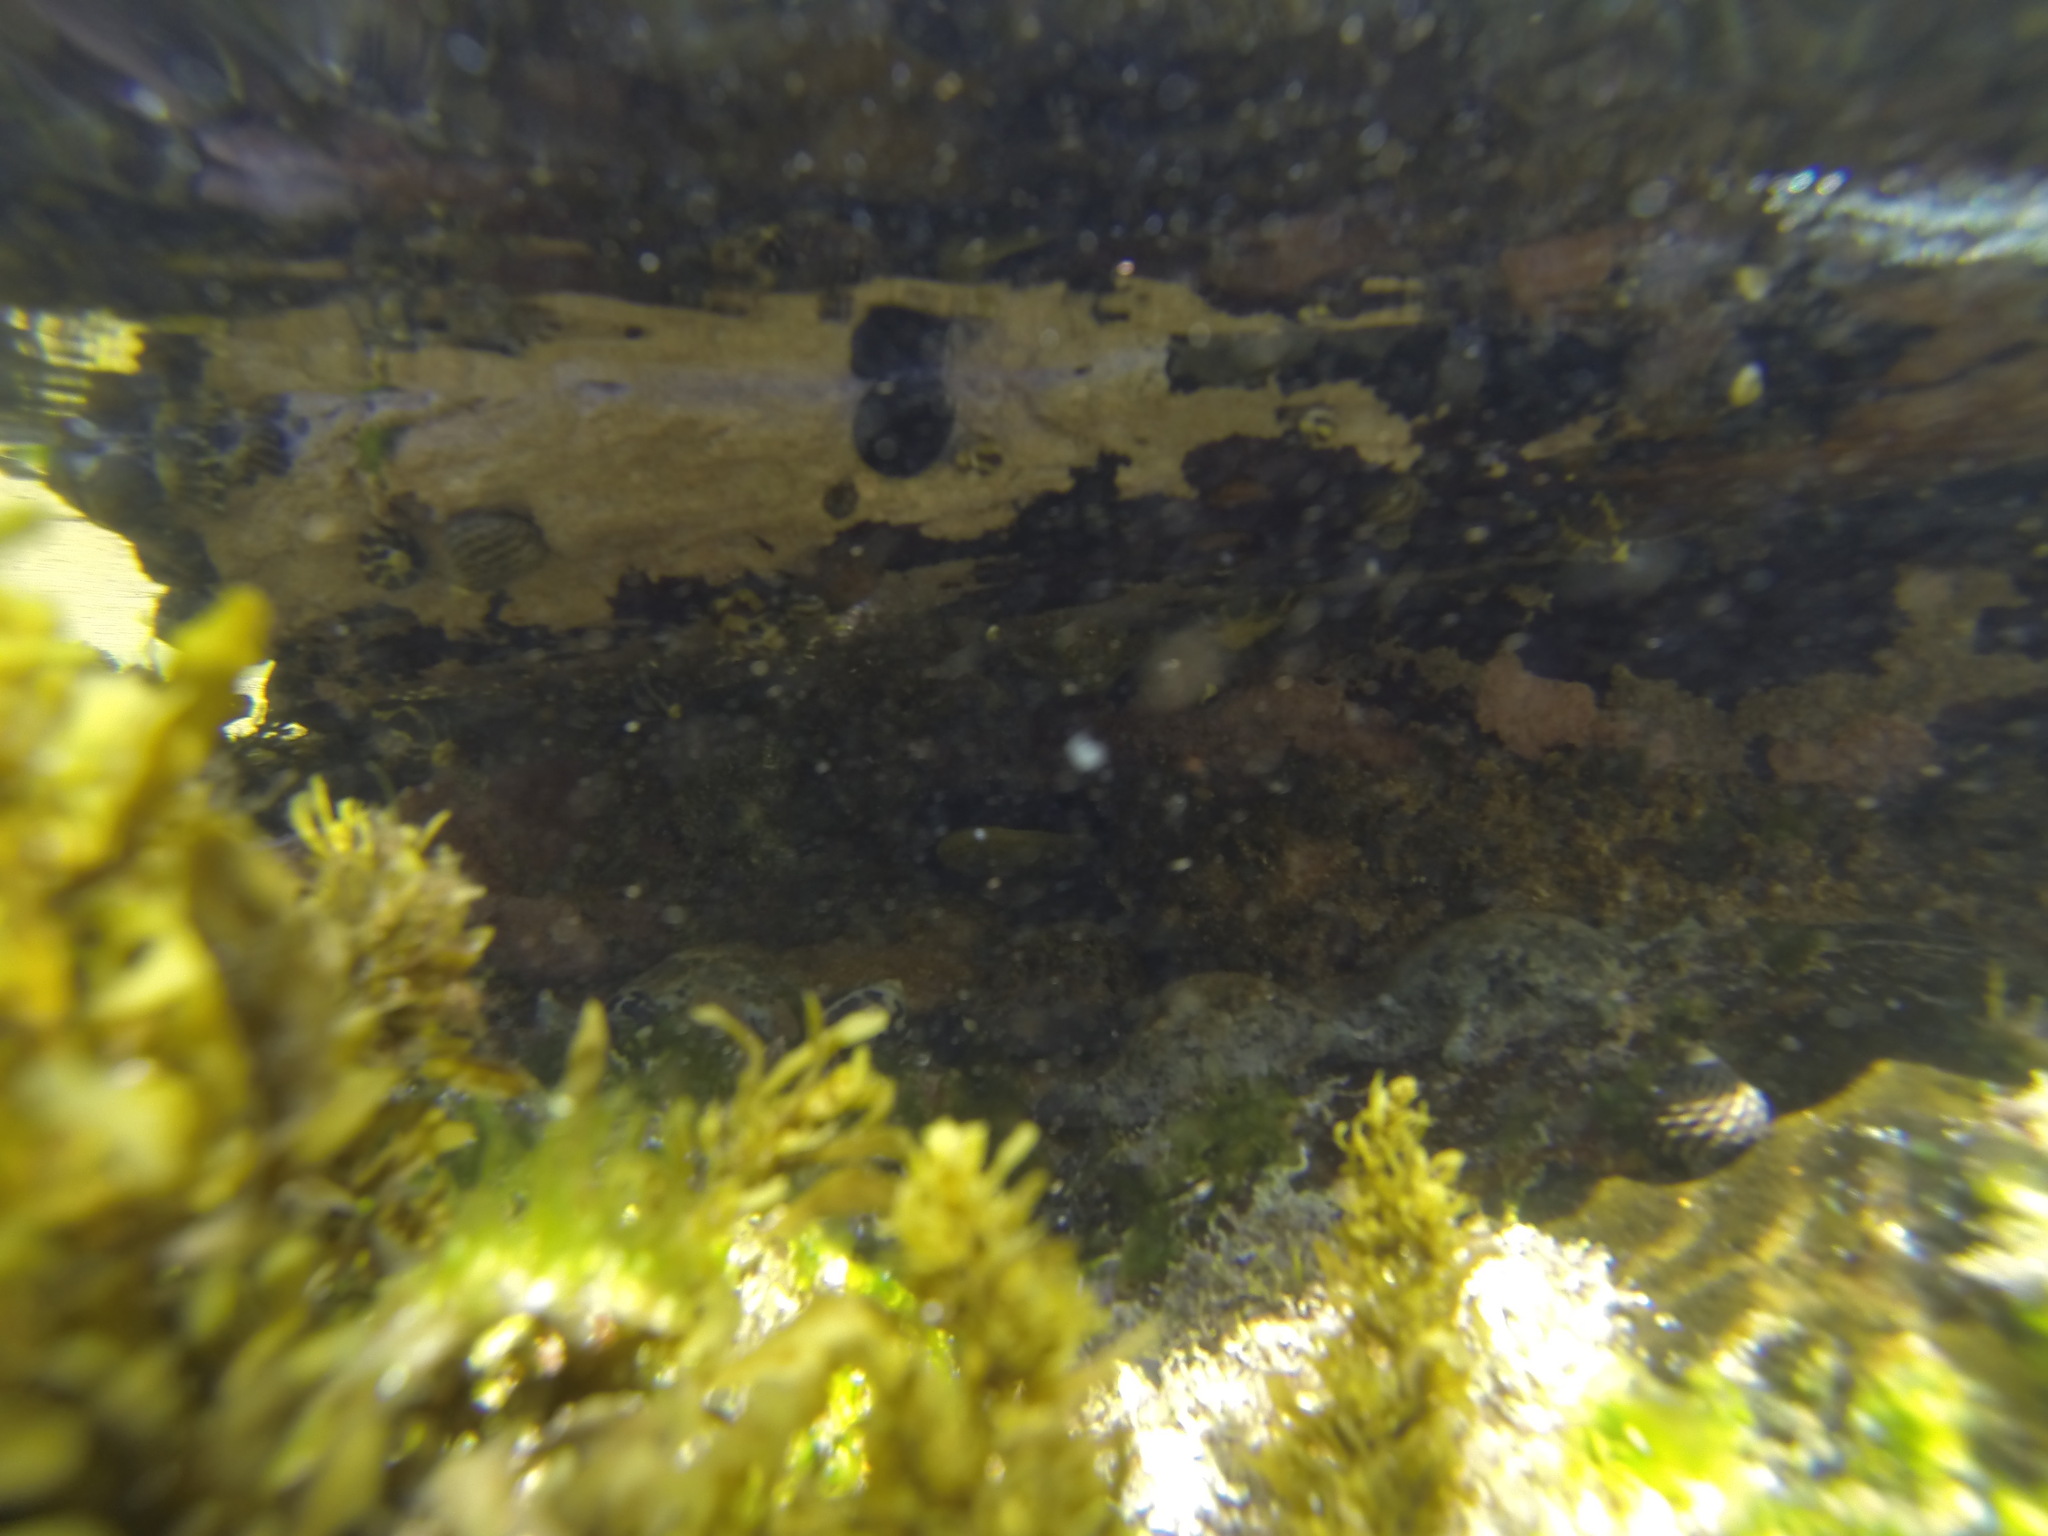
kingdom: Animalia
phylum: Echinodermata
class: Asteroidea
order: Valvatida
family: Asterinidae
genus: Meridiastra
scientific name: Meridiastra calcar
